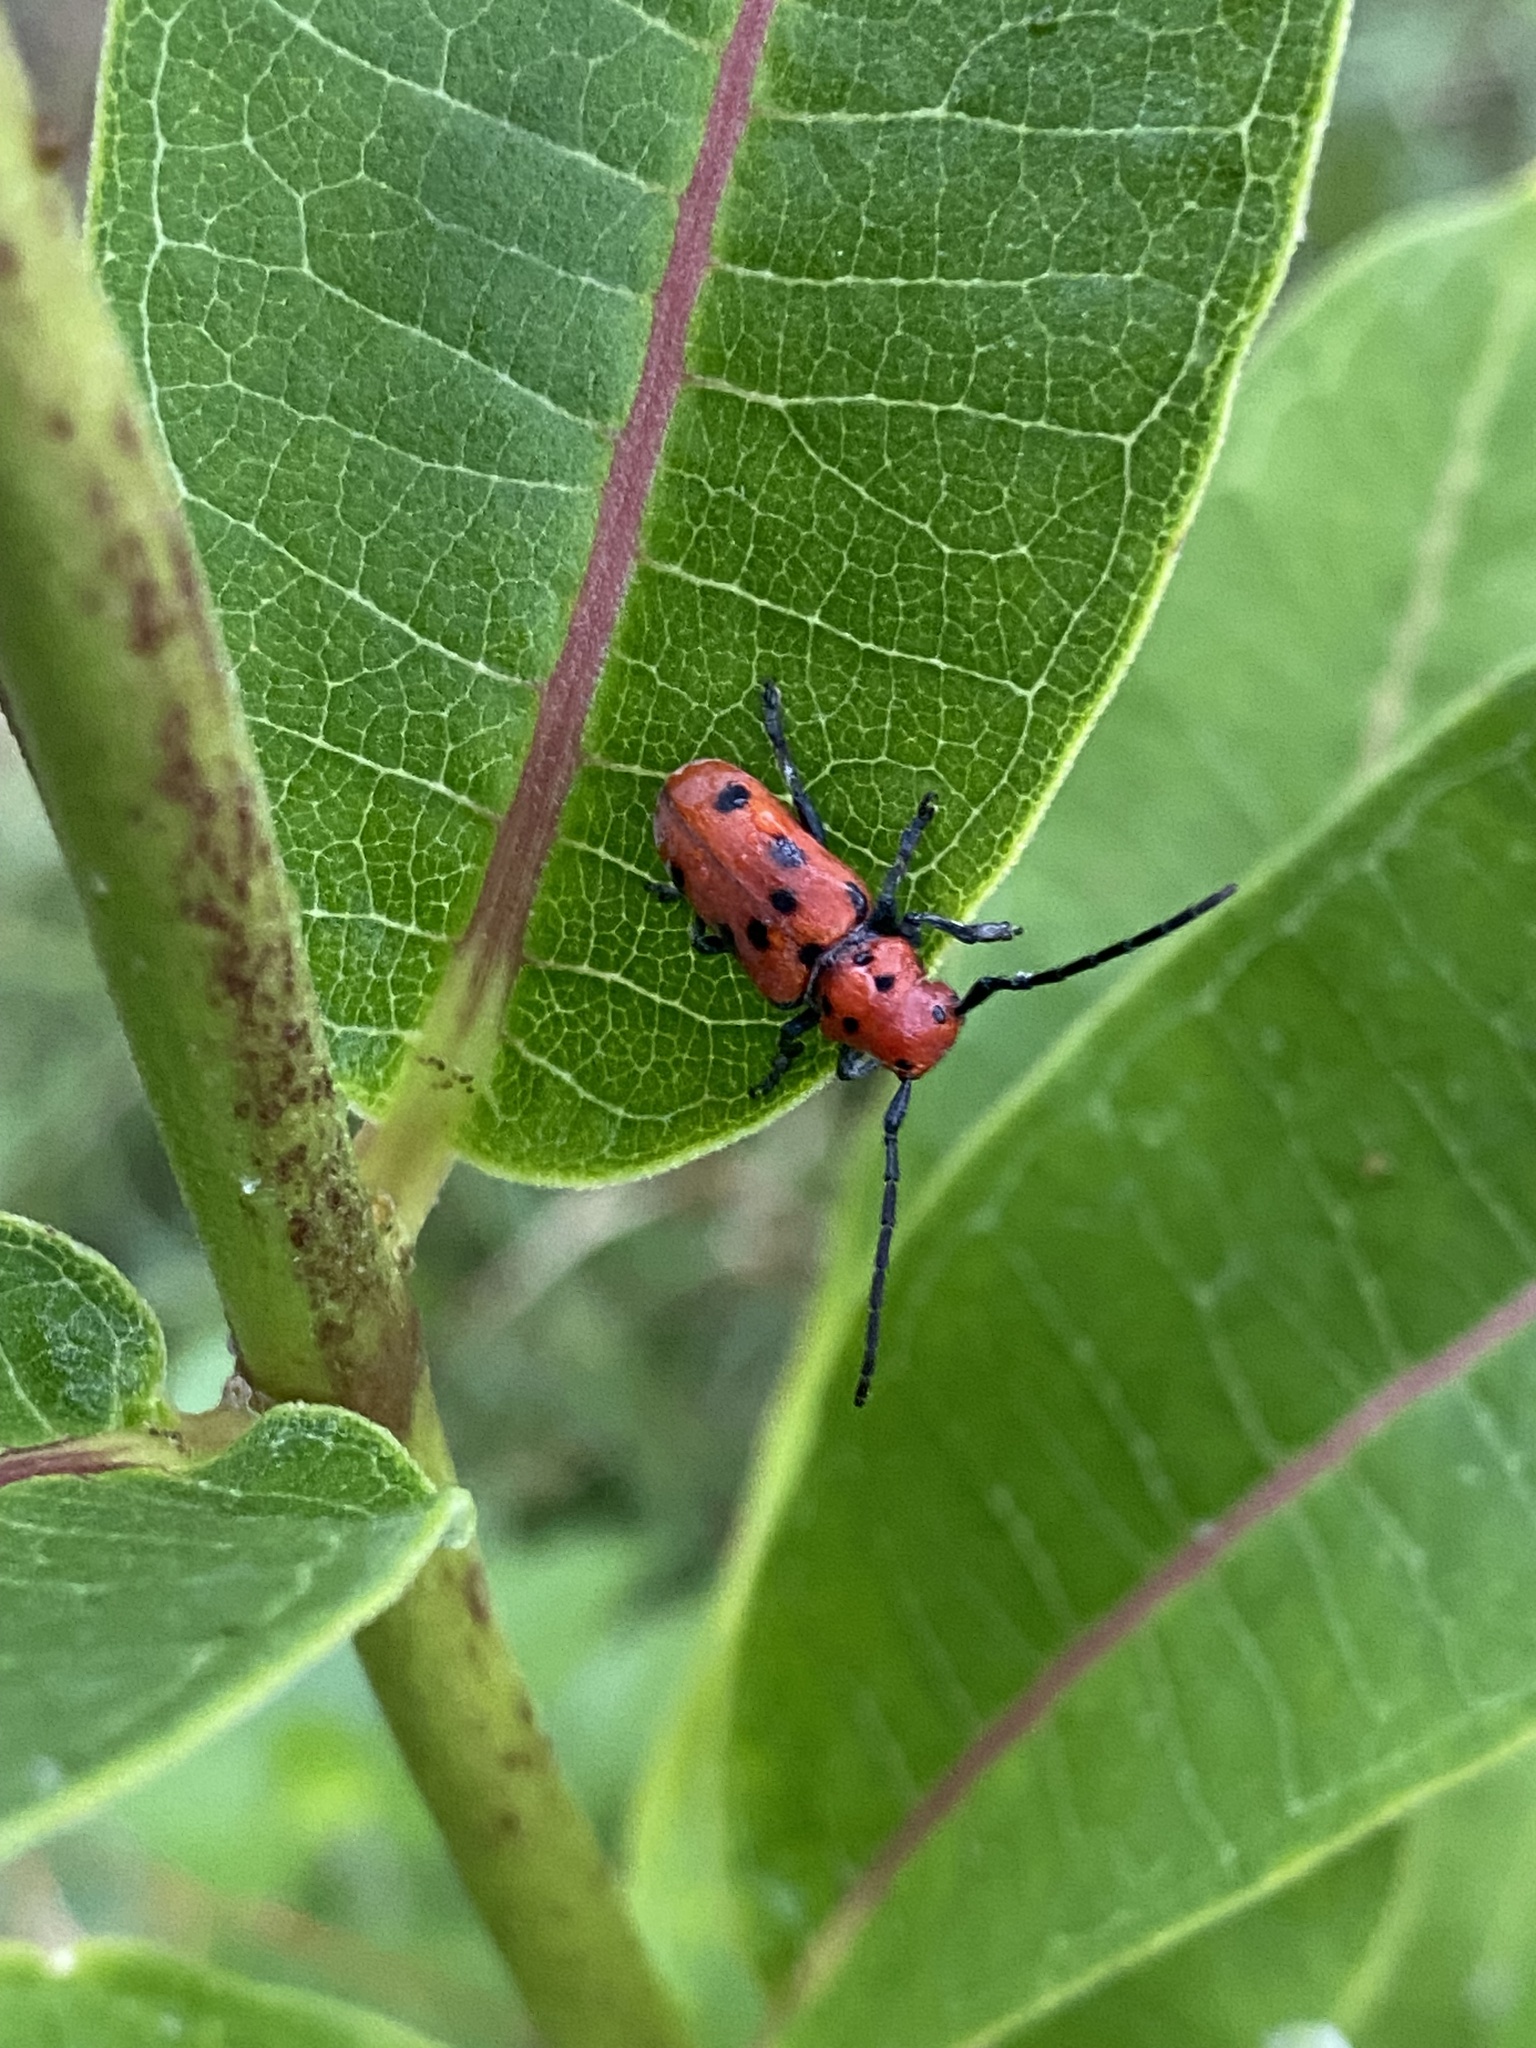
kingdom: Animalia
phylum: Arthropoda
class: Insecta
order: Coleoptera
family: Cerambycidae
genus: Tetraopes
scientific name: Tetraopes tetrophthalmus
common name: Red milkweed beetle
